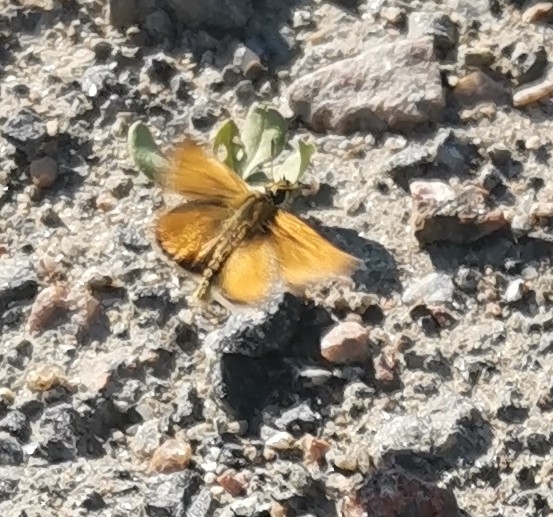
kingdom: Animalia
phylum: Arthropoda
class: Insecta
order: Lepidoptera
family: Hesperiidae
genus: Thymelicus
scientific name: Thymelicus lineola
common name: Essex skipper
